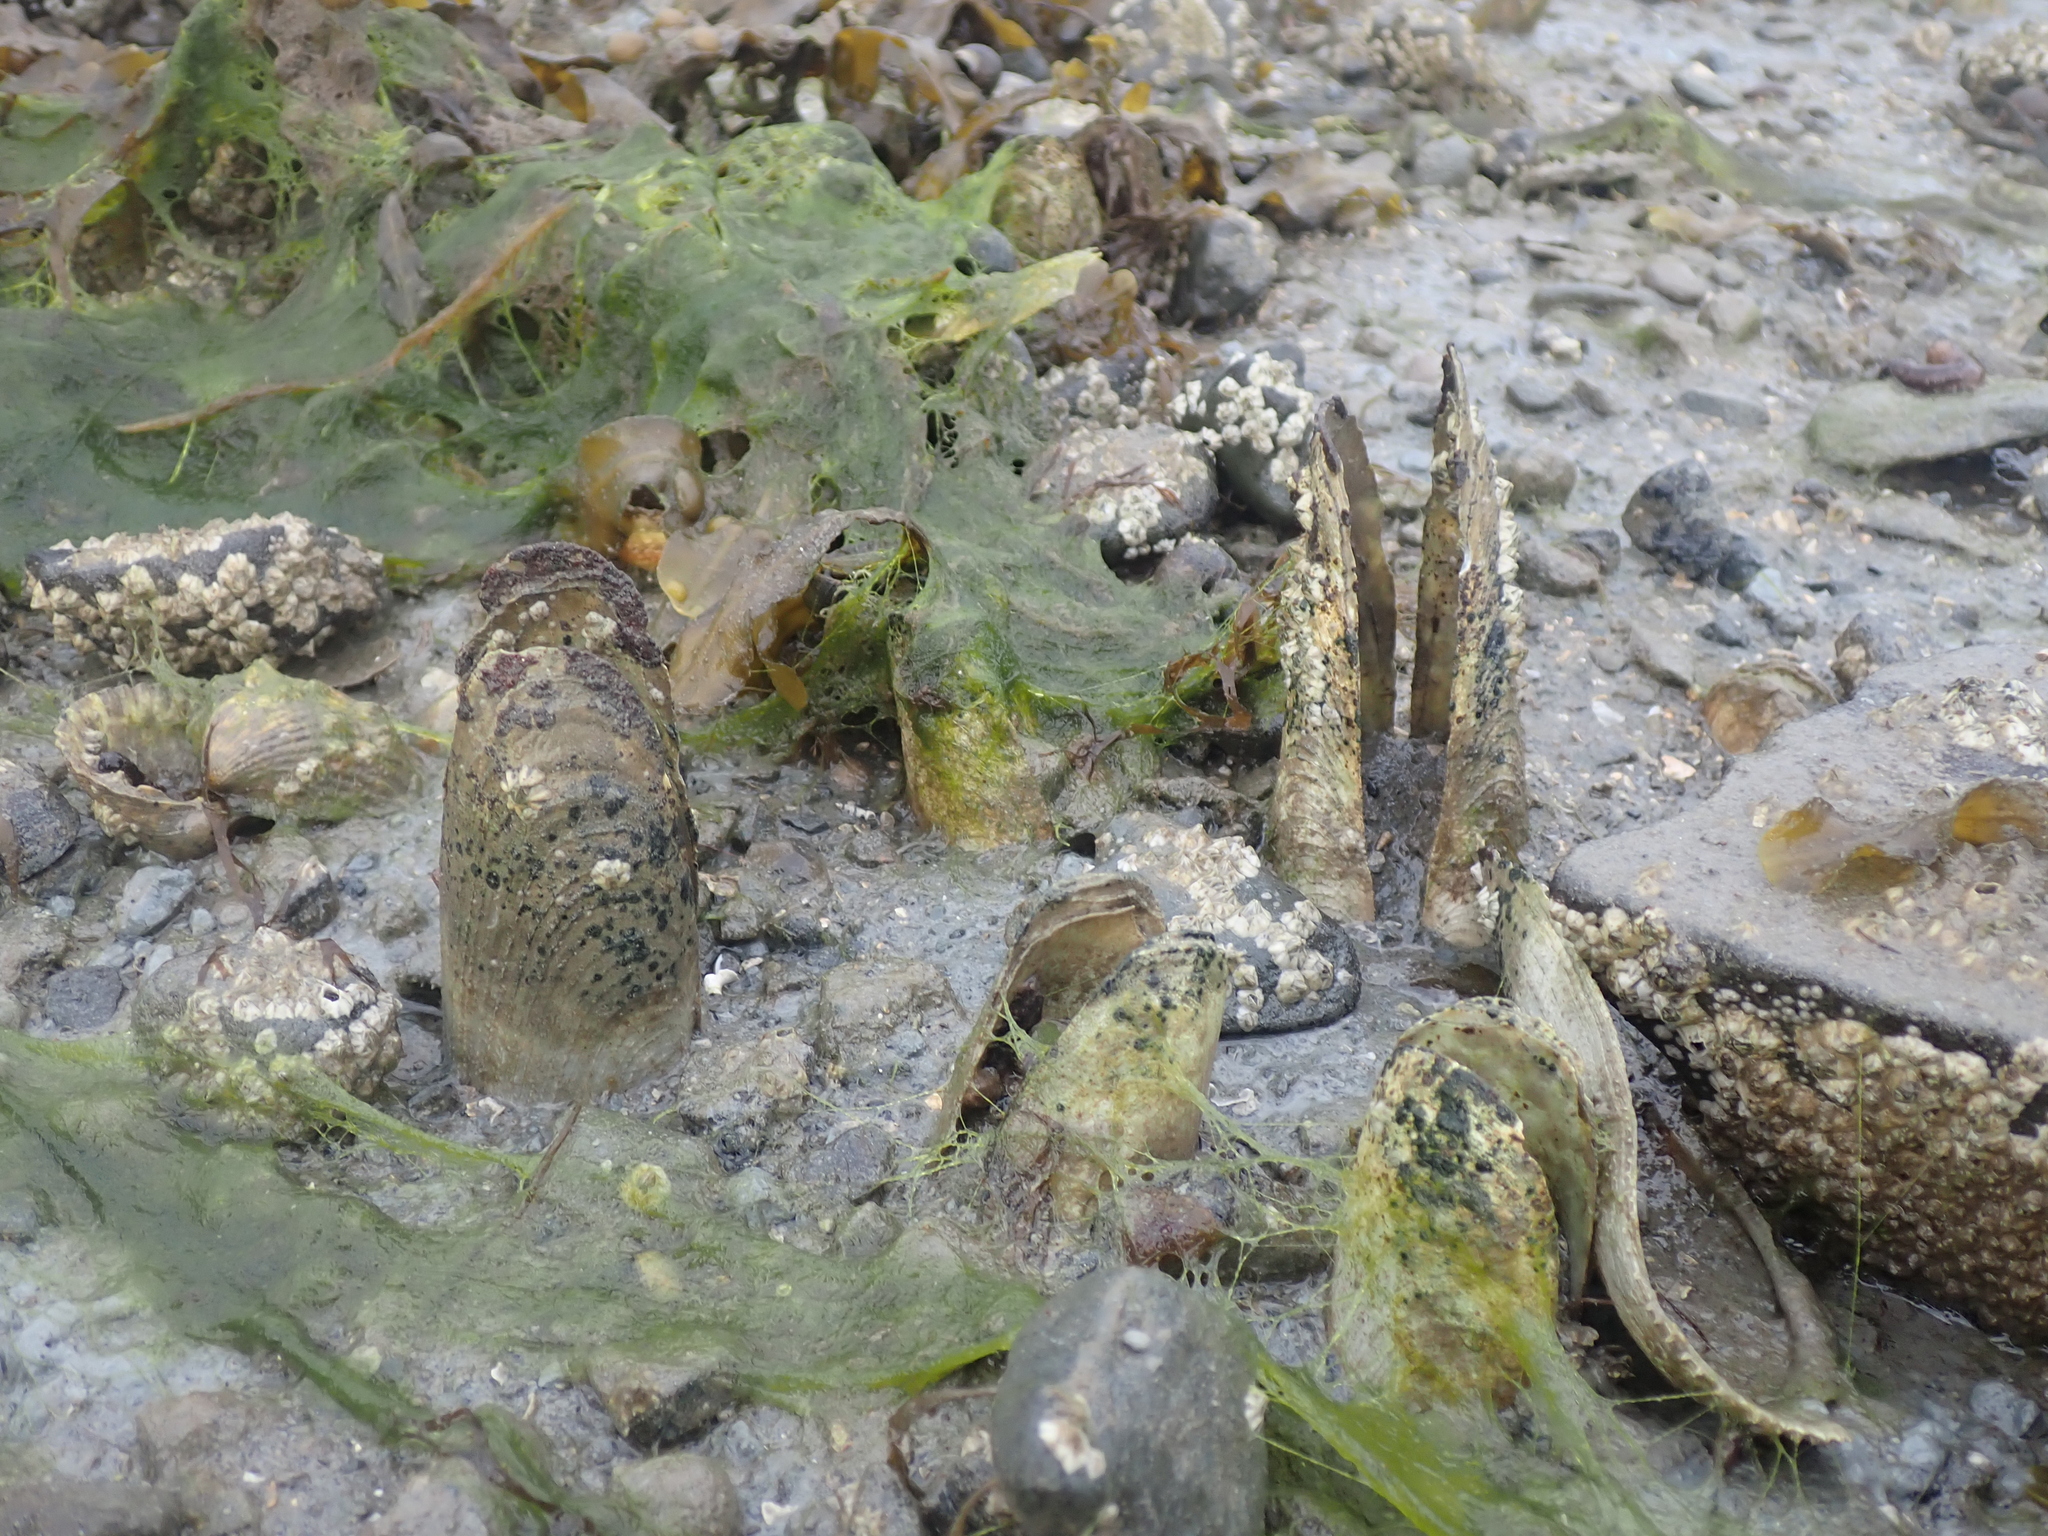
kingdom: Animalia
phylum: Mollusca
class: Bivalvia
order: Myida
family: Pholadidae
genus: Pholas
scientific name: Pholas dactylus
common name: Common piddock
